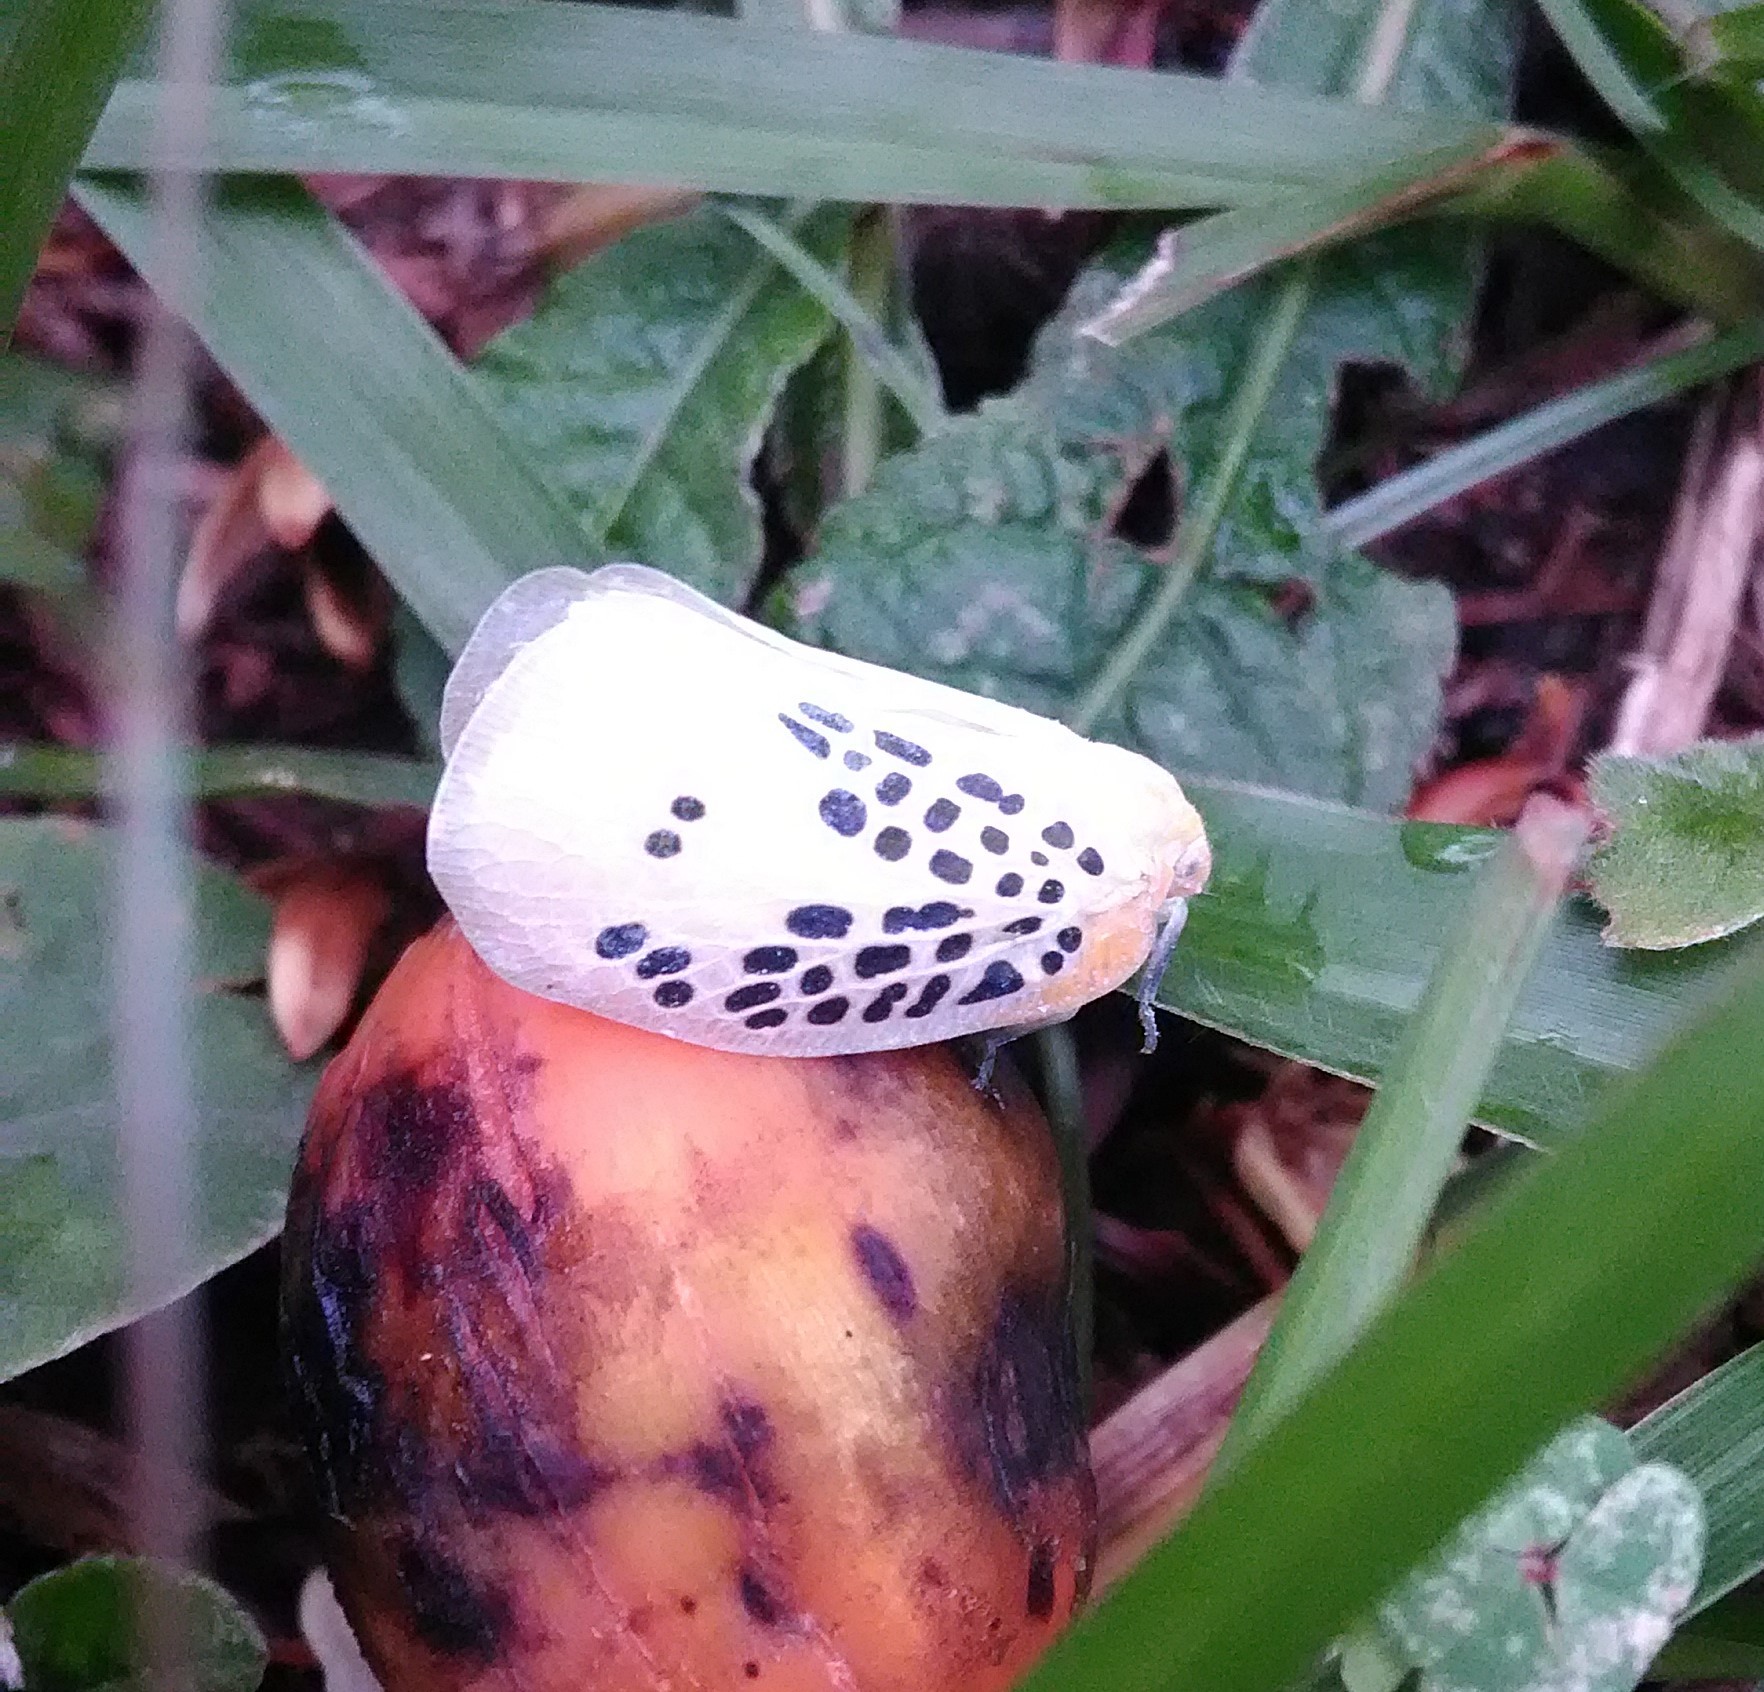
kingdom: Animalia
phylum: Arthropoda
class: Insecta
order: Hemiptera
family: Flatidae
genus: Poekilloptera
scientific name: Poekilloptera phalaenoides
